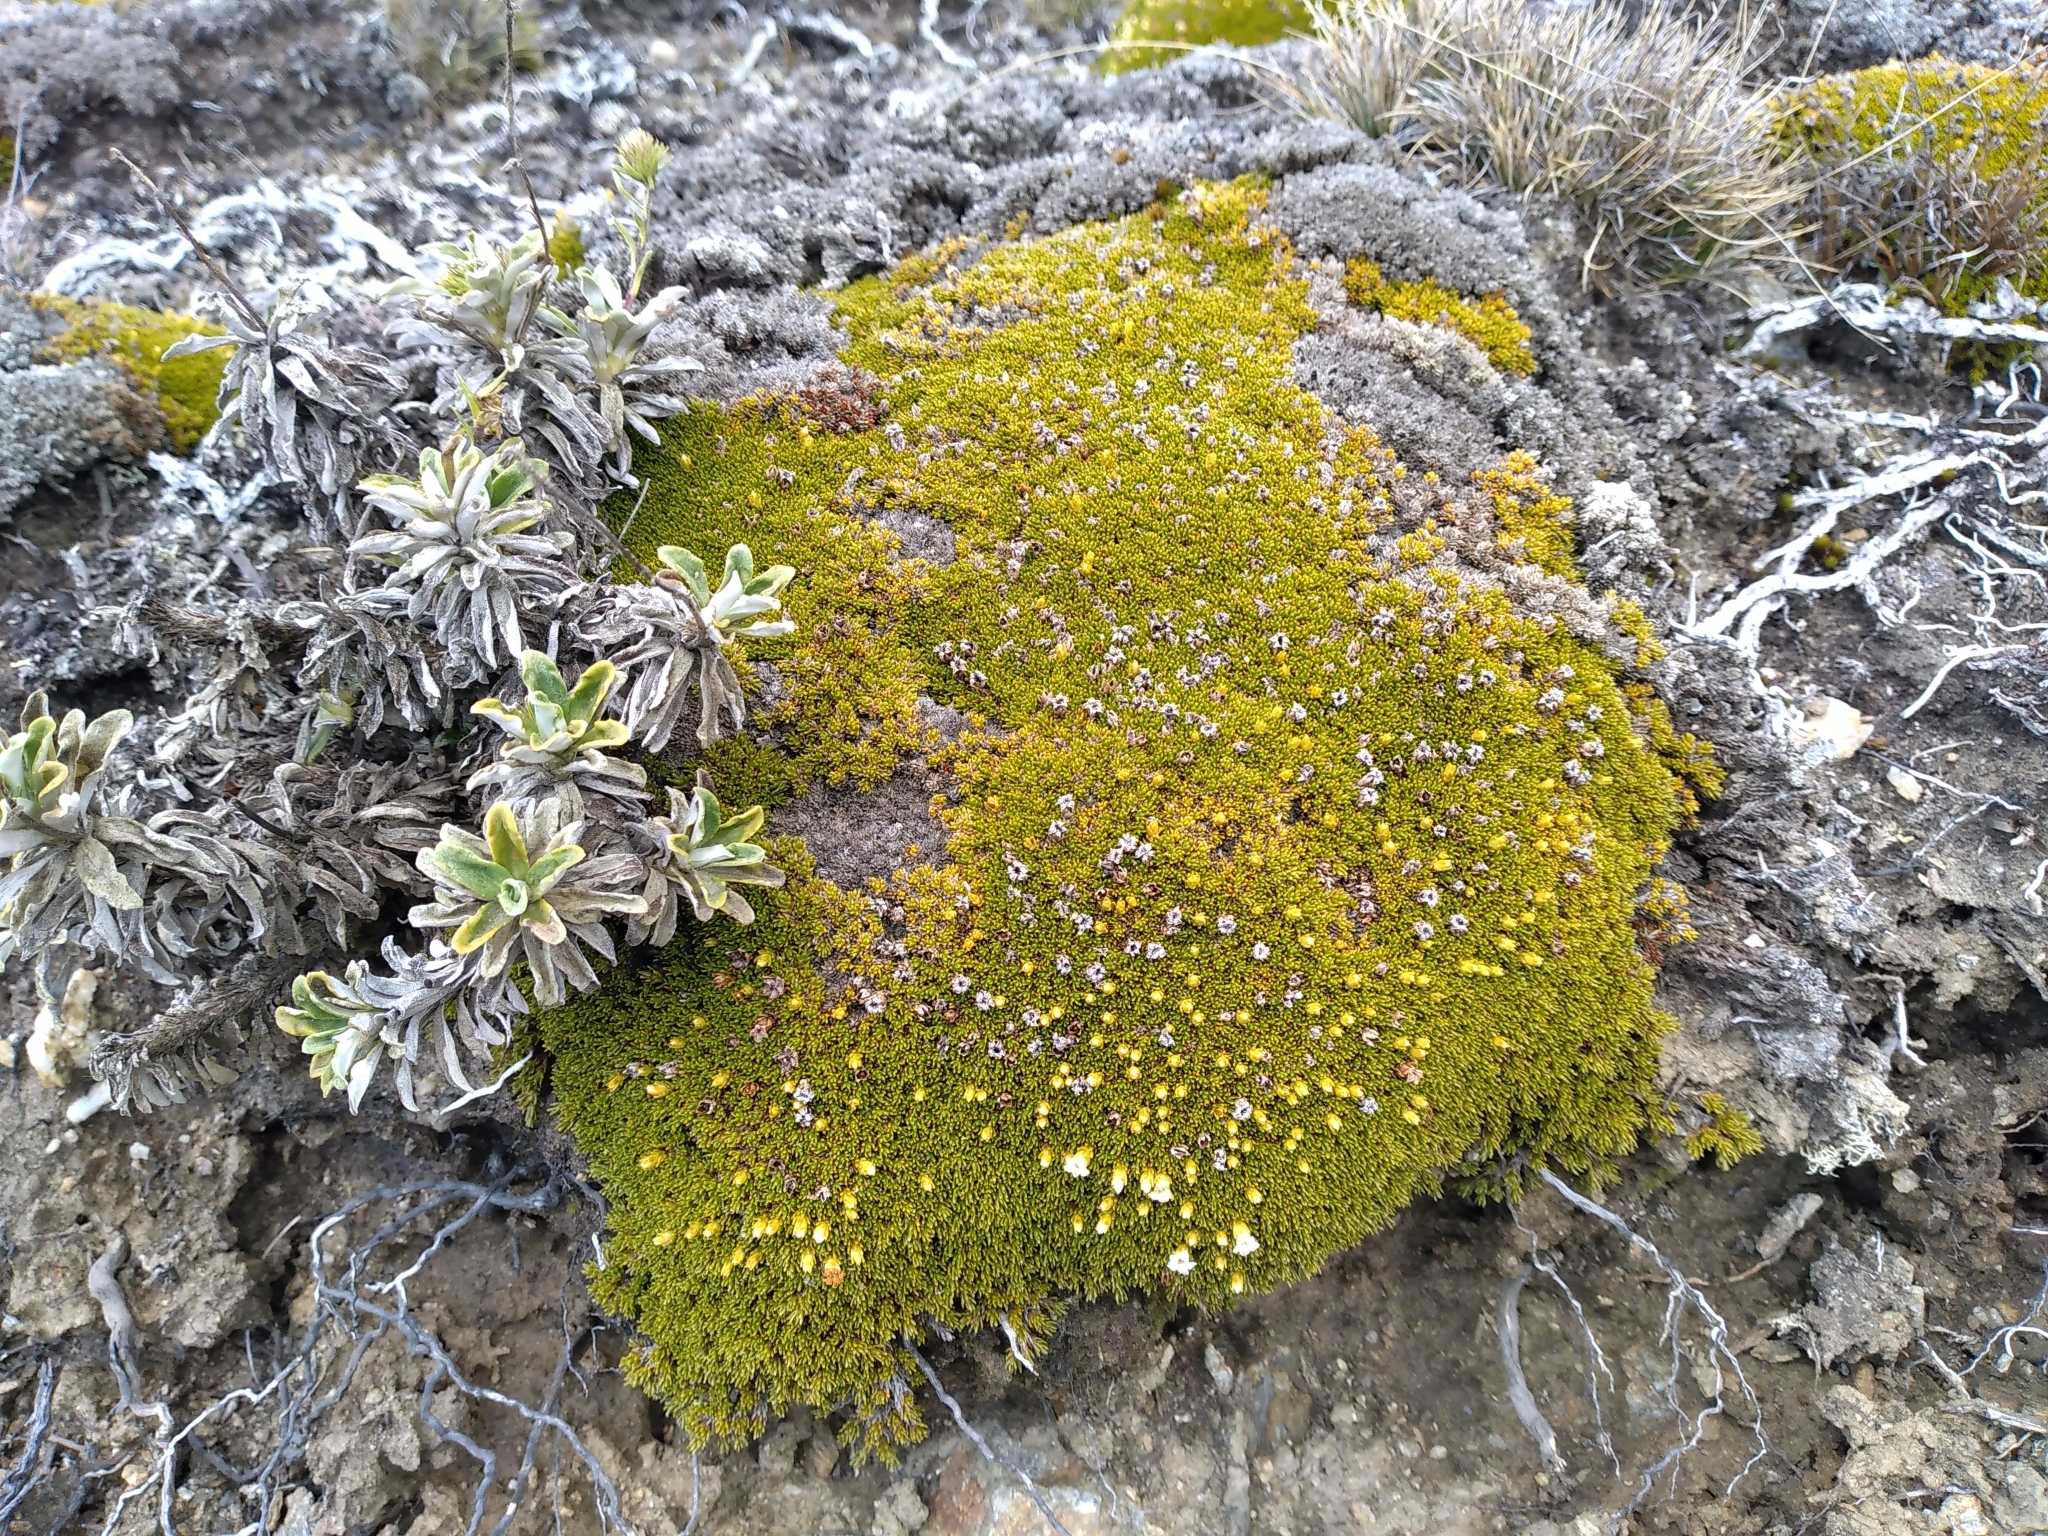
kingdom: Plantae
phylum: Tracheophyta
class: Magnoliopsida
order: Ericales
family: Ericaceae
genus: Dracophyllum
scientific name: Dracophyllum muscoides
